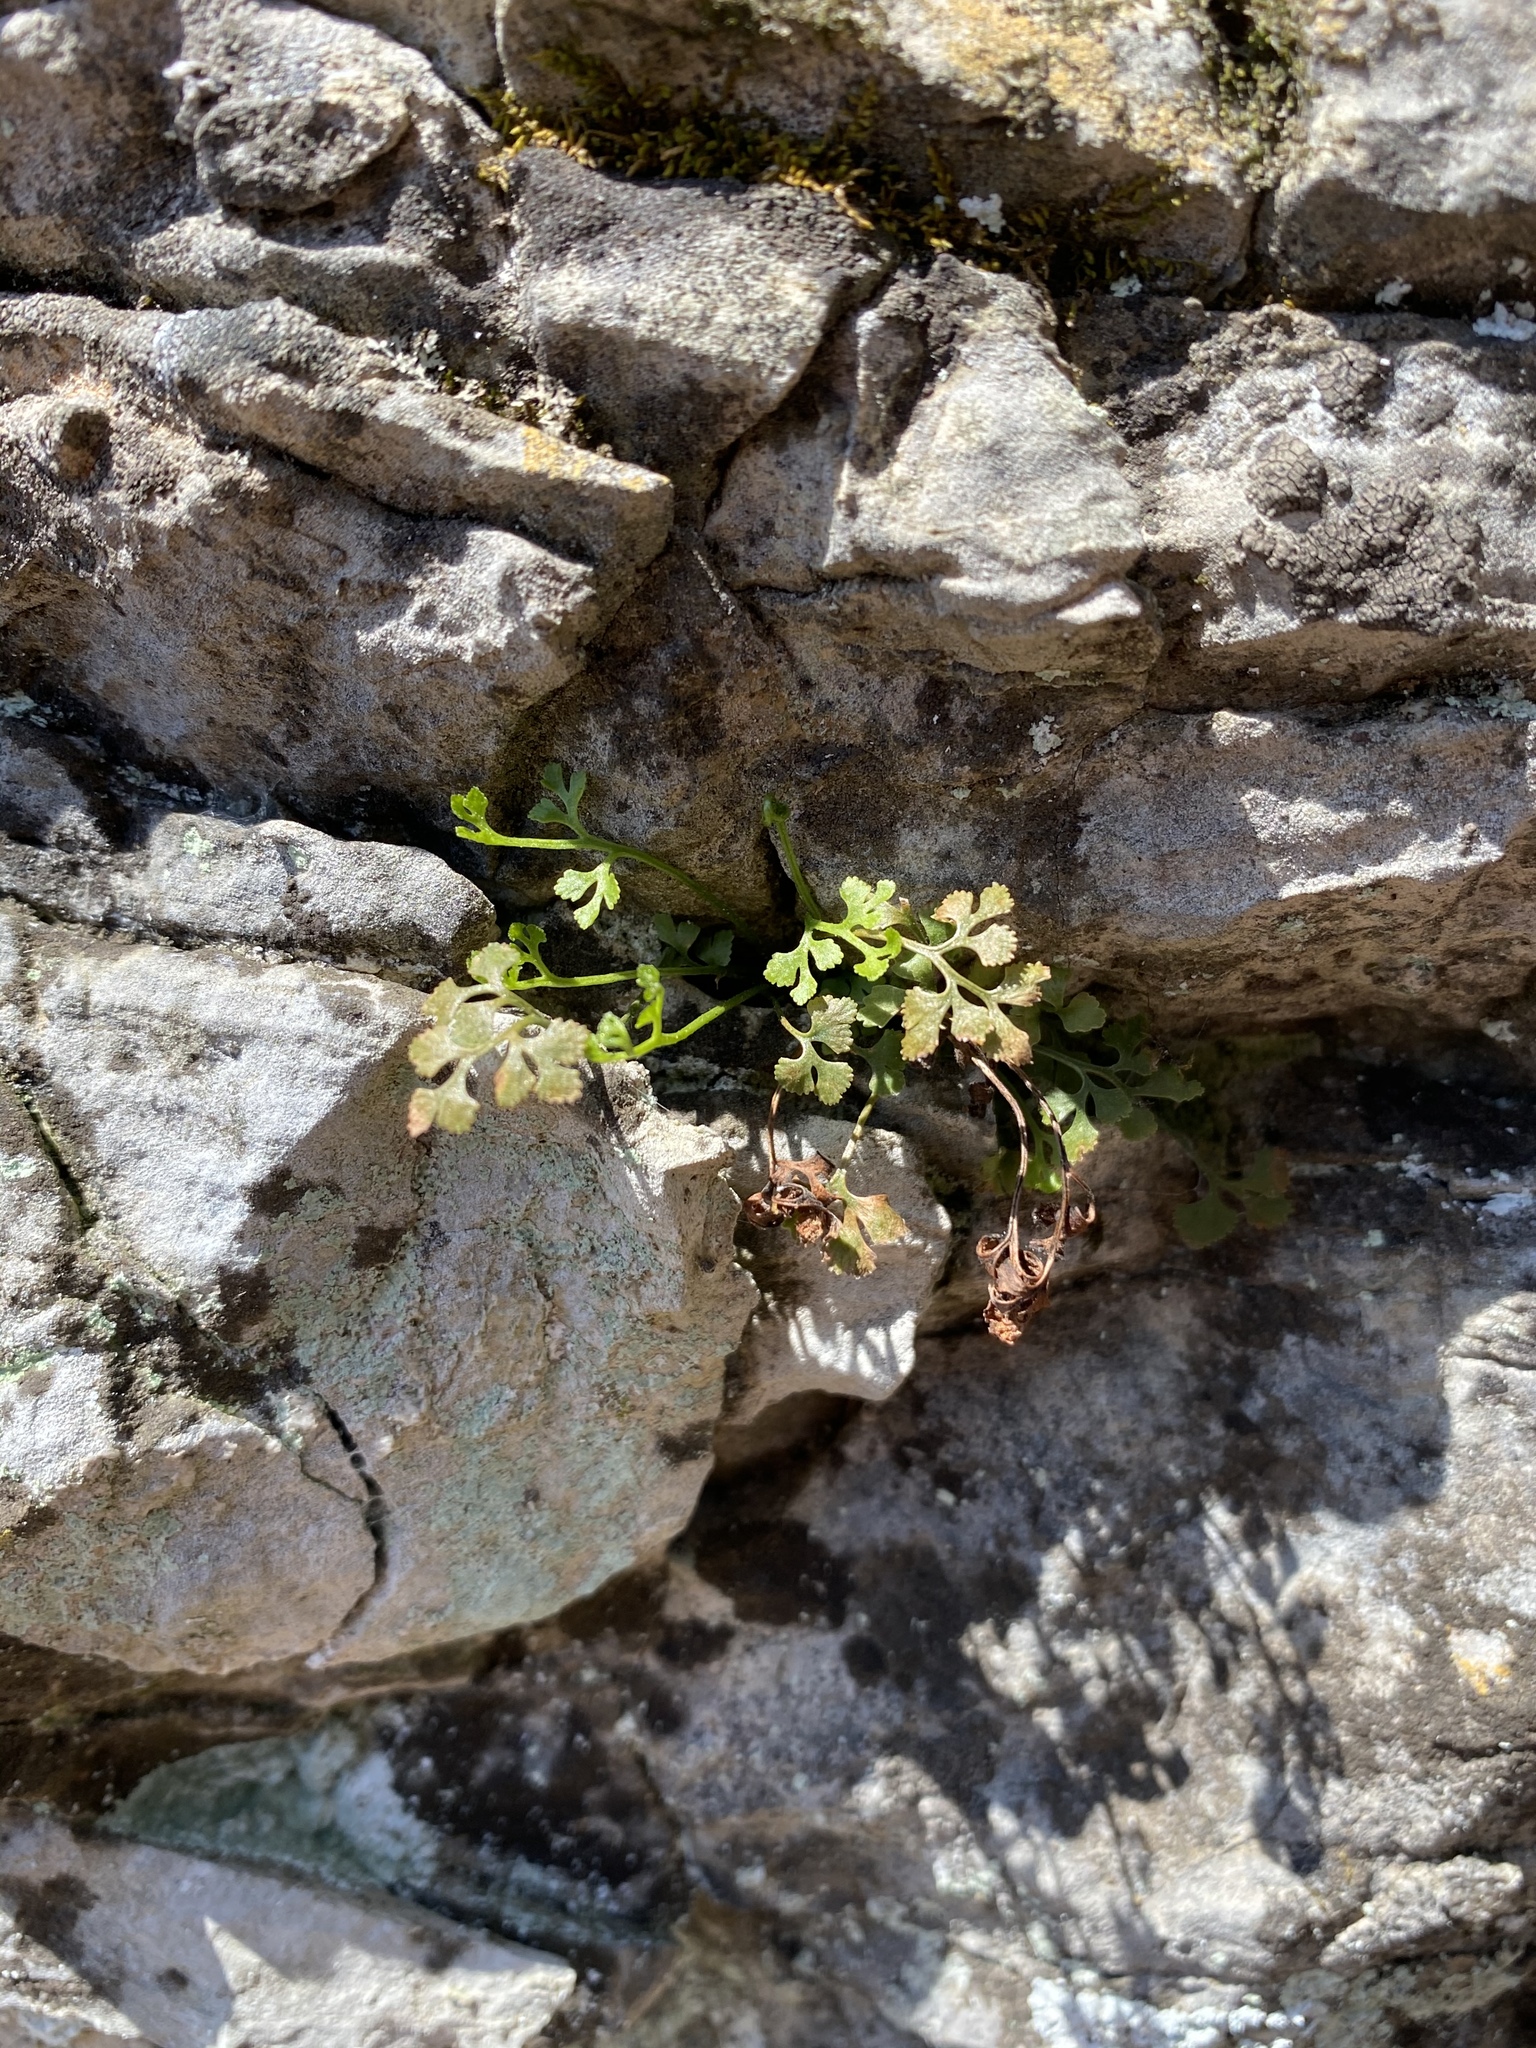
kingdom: Plantae
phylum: Tracheophyta
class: Polypodiopsida
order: Polypodiales
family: Aspleniaceae
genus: Asplenium
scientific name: Asplenium ruta-muraria
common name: Wall-rue
